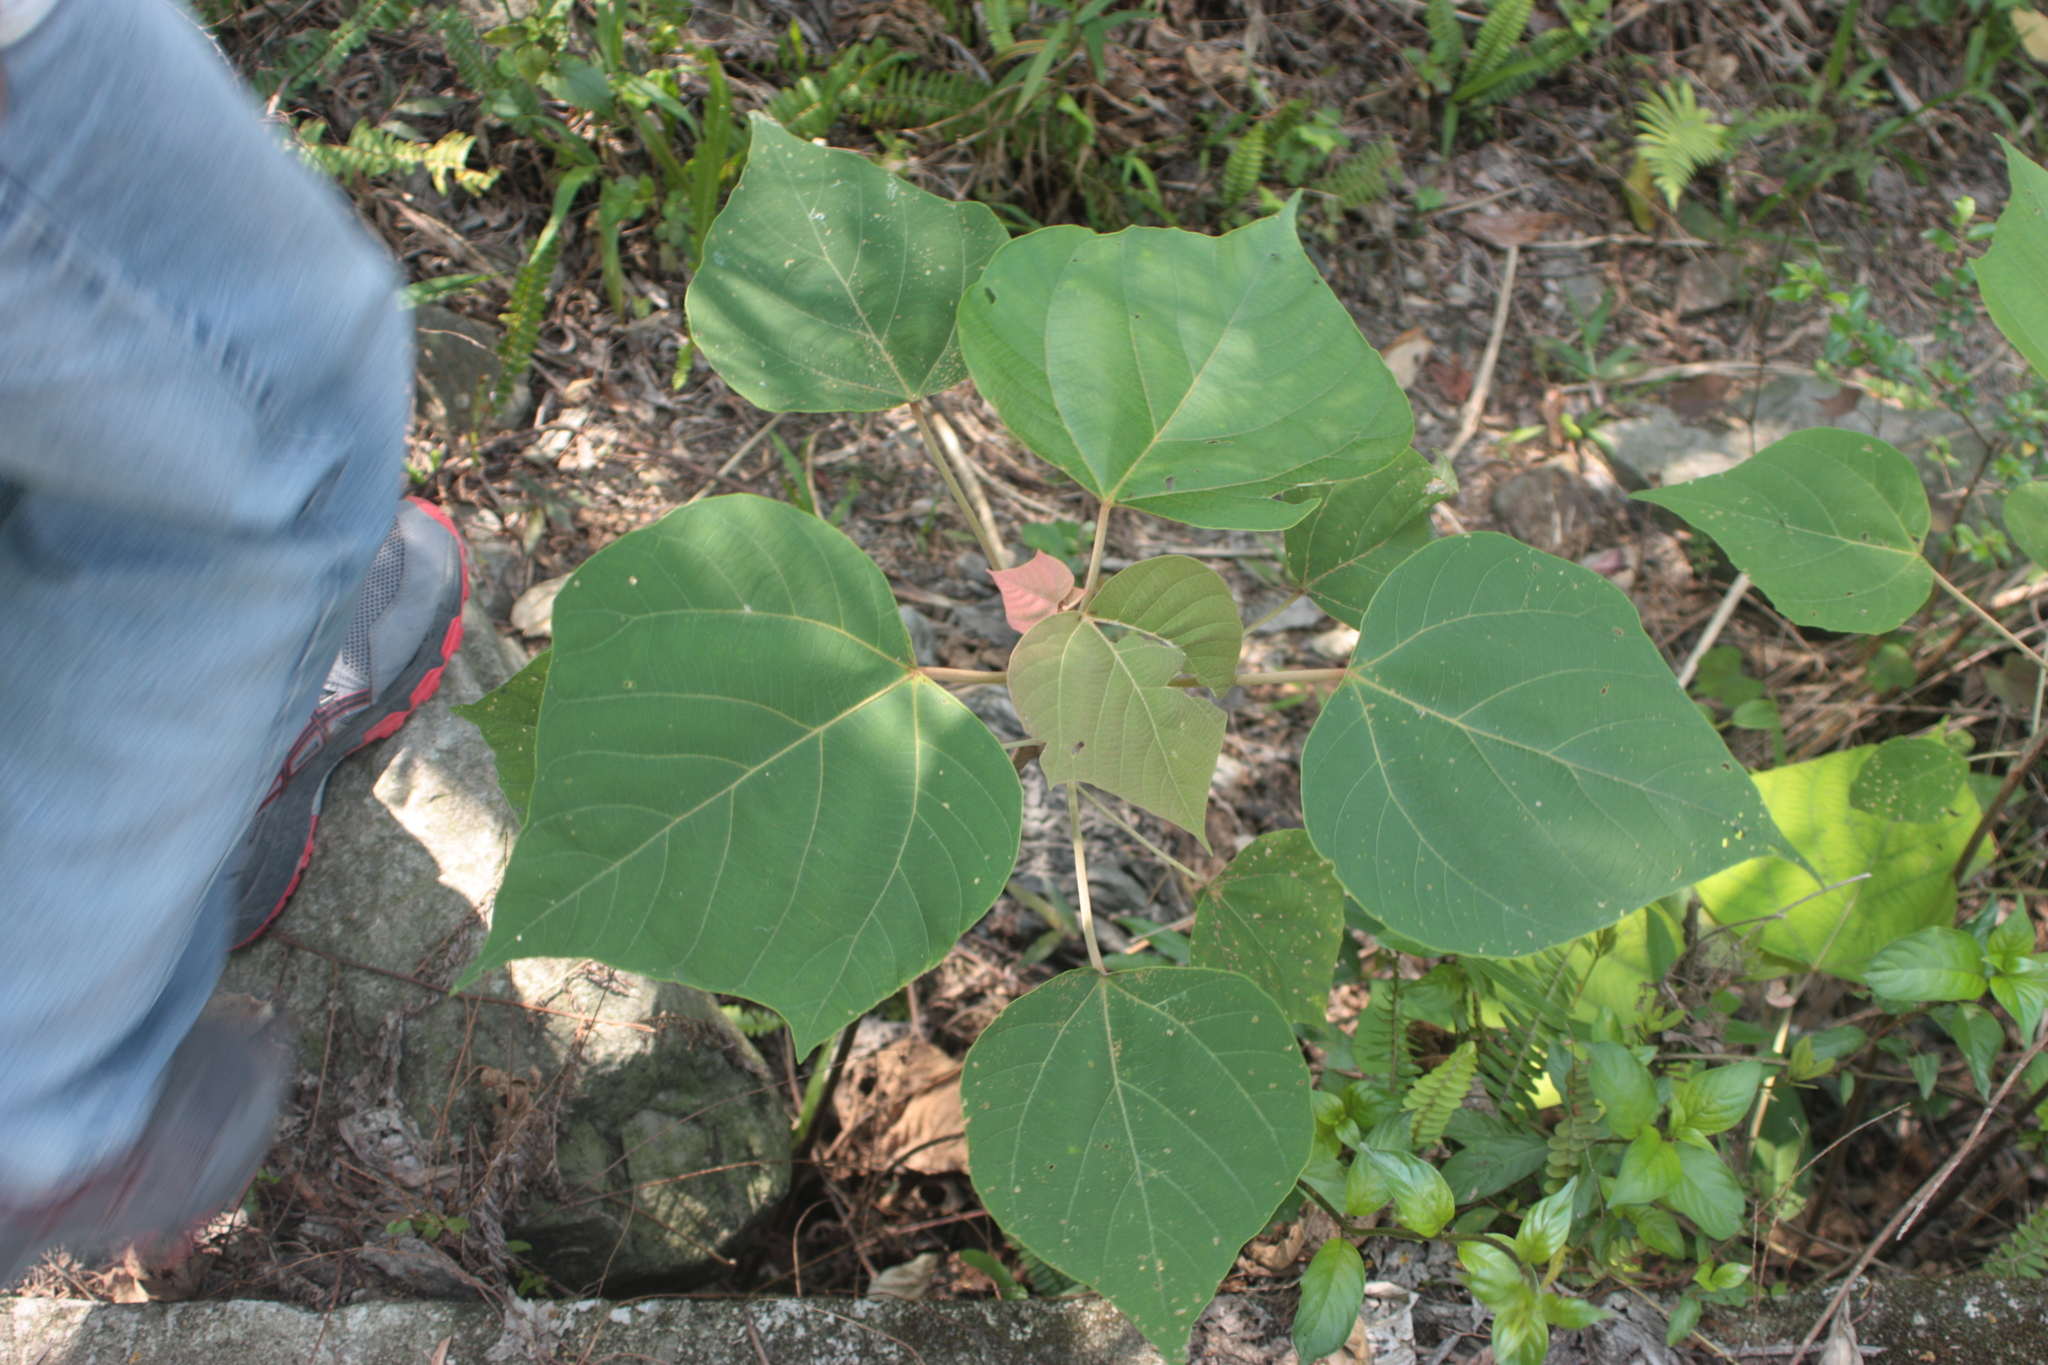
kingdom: Plantae
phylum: Tracheophyta
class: Magnoliopsida
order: Malpighiales
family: Euphorbiaceae
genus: Mallotus
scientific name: Mallotus japonicus
